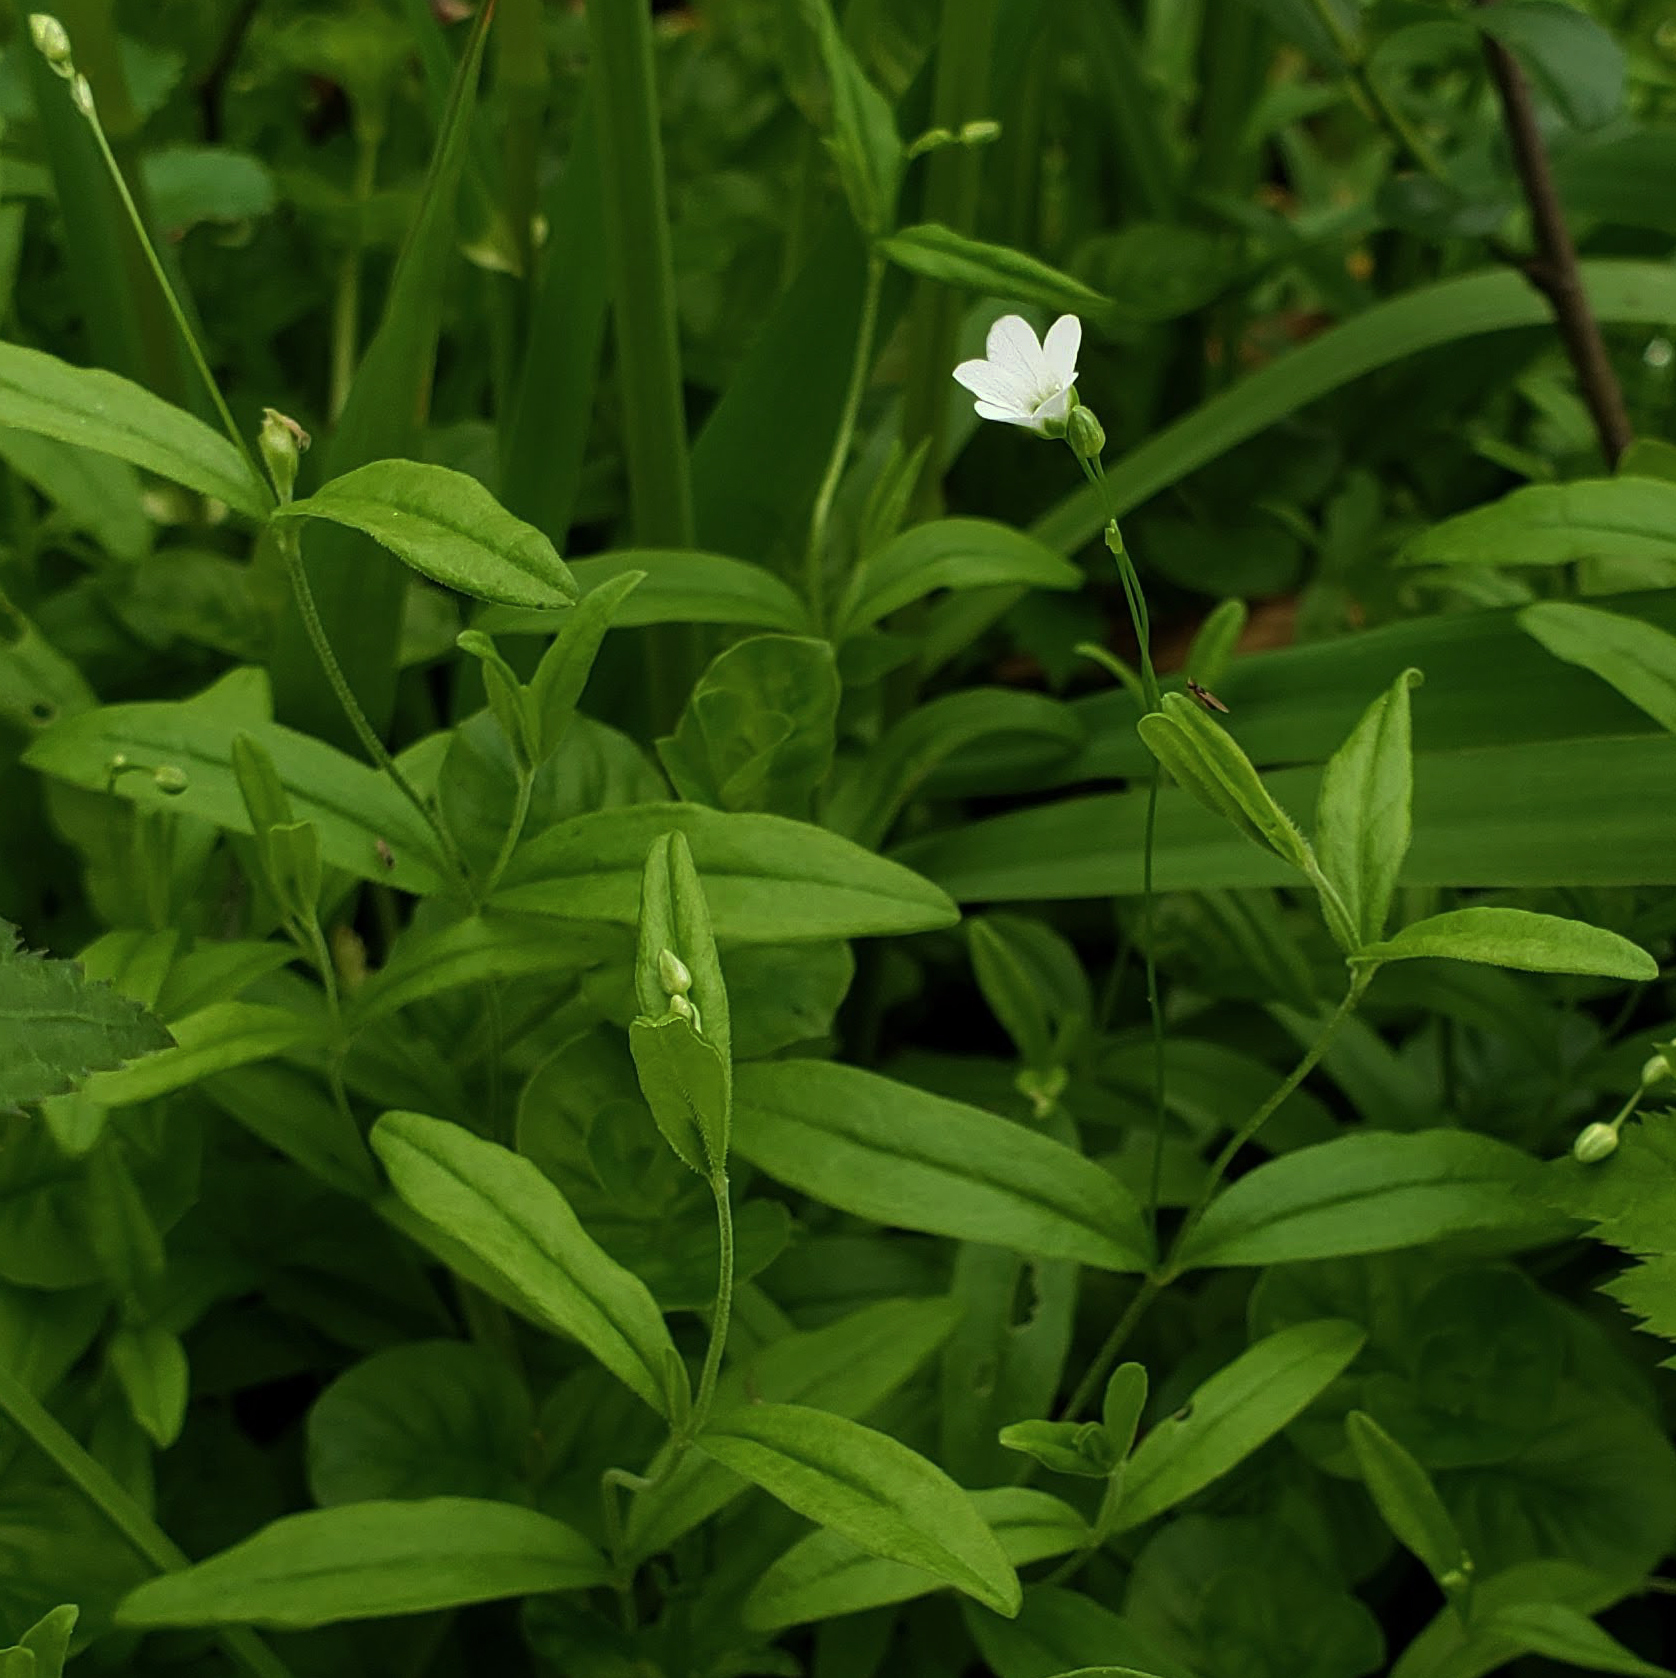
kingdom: Plantae
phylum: Tracheophyta
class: Magnoliopsida
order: Caryophyllales
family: Caryophyllaceae
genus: Moehringia
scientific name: Moehringia lateriflora
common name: Blunt-leaved sandwort
